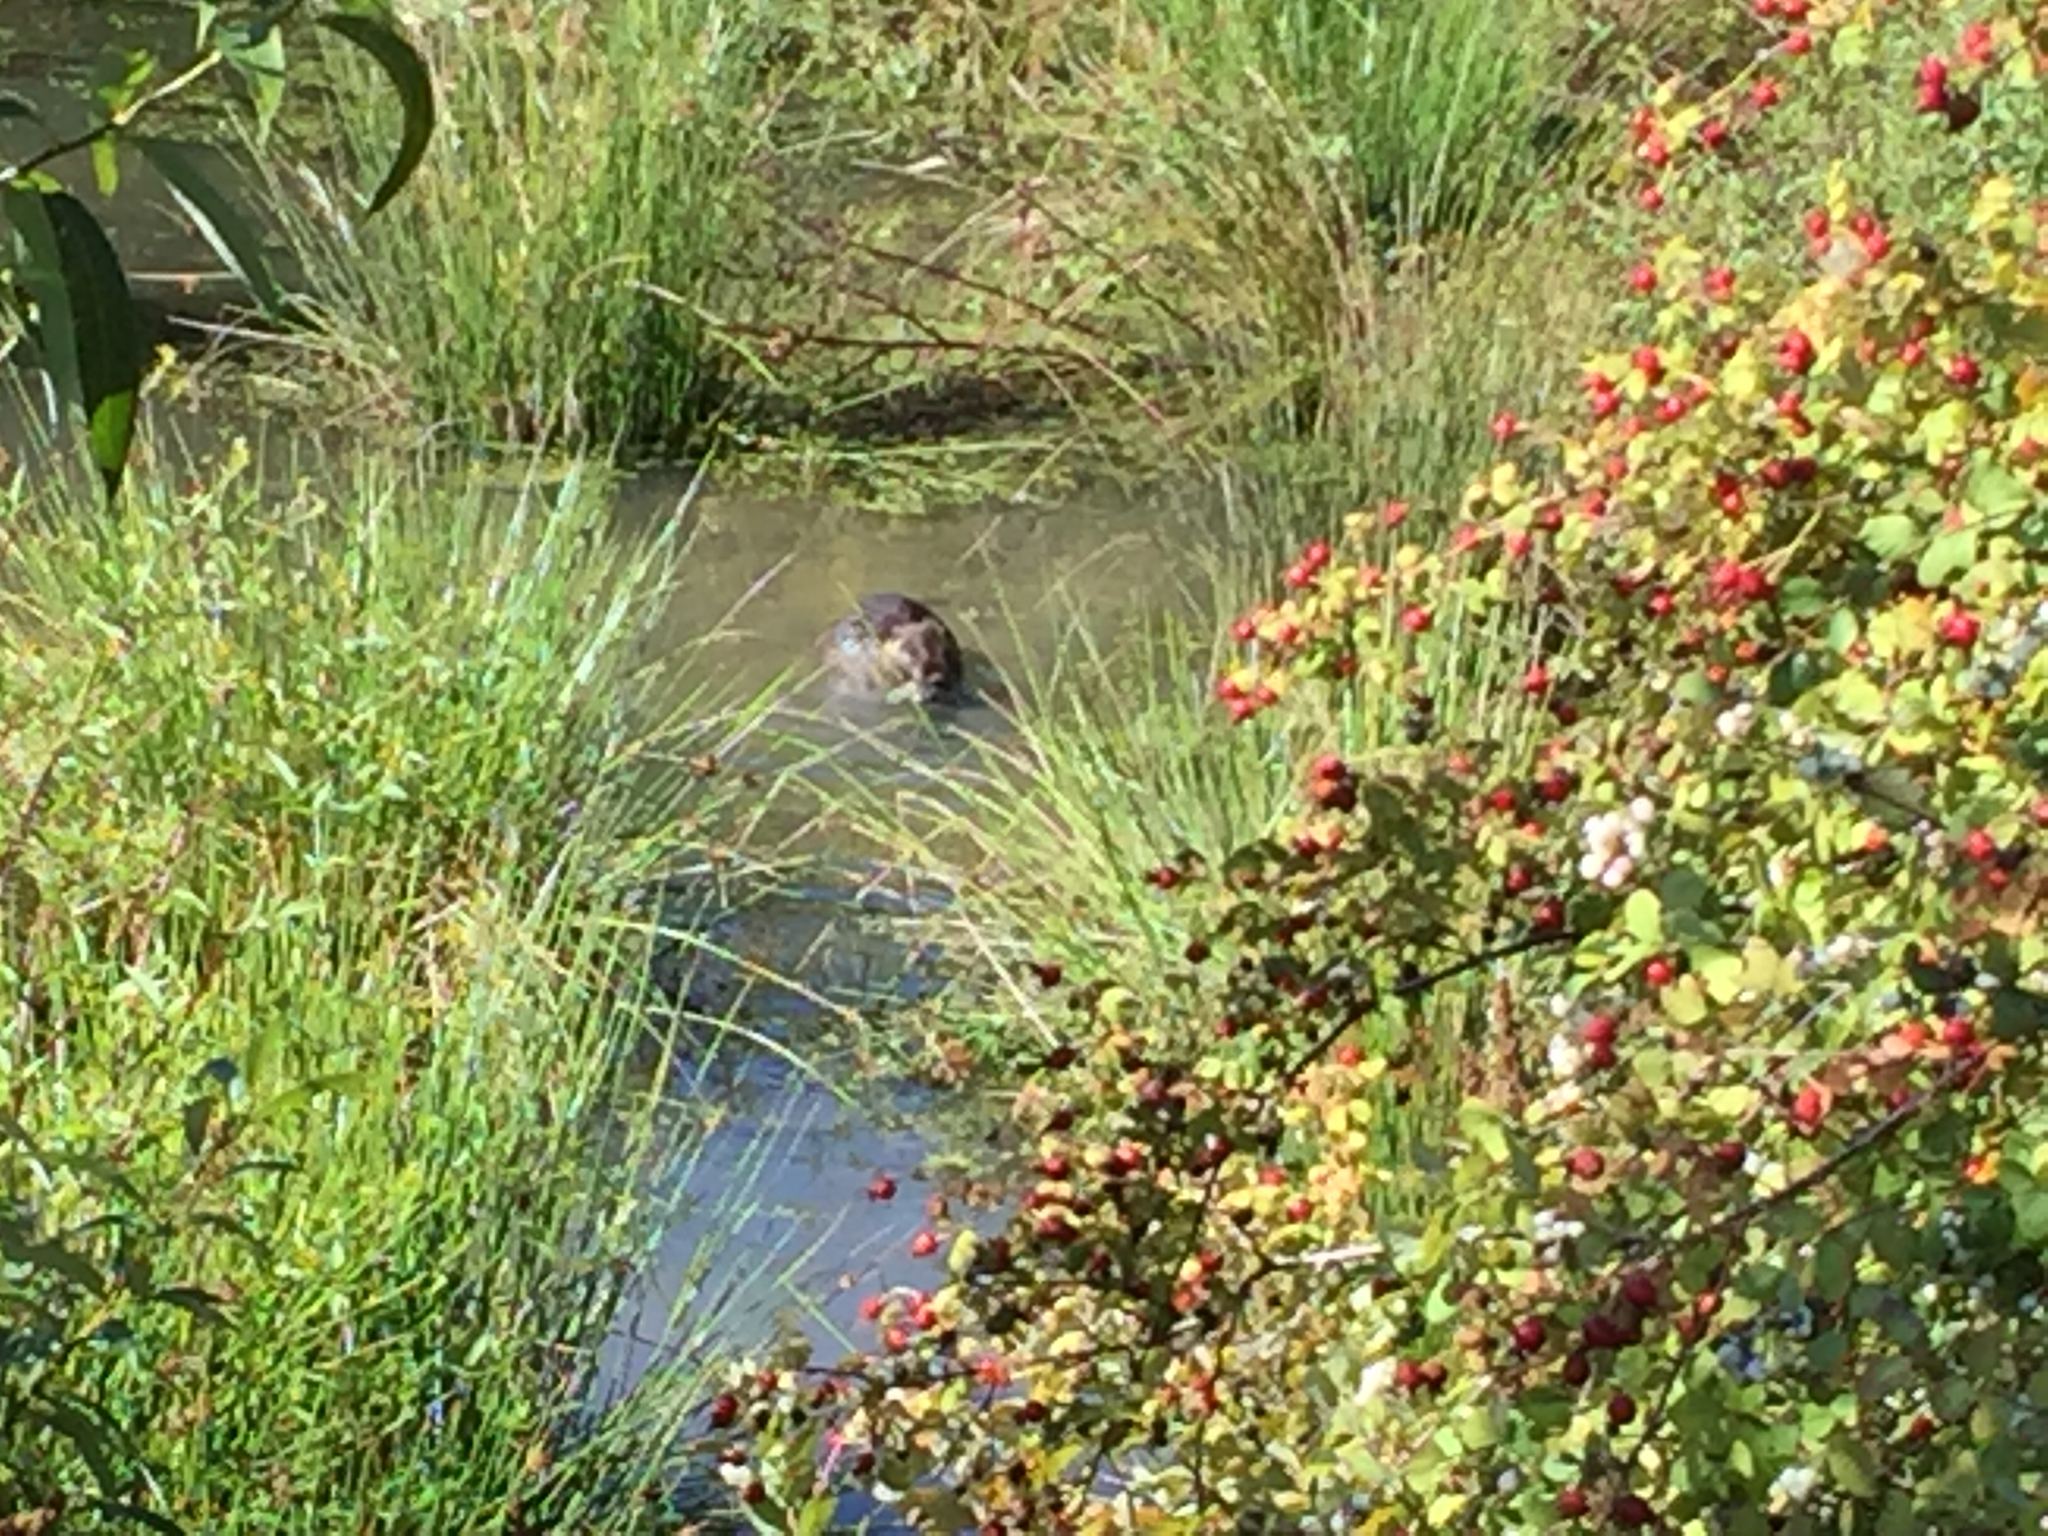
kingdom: Animalia
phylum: Chordata
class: Mammalia
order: Rodentia
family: Myocastoridae
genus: Myocastor
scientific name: Myocastor coypus
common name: Coypu
